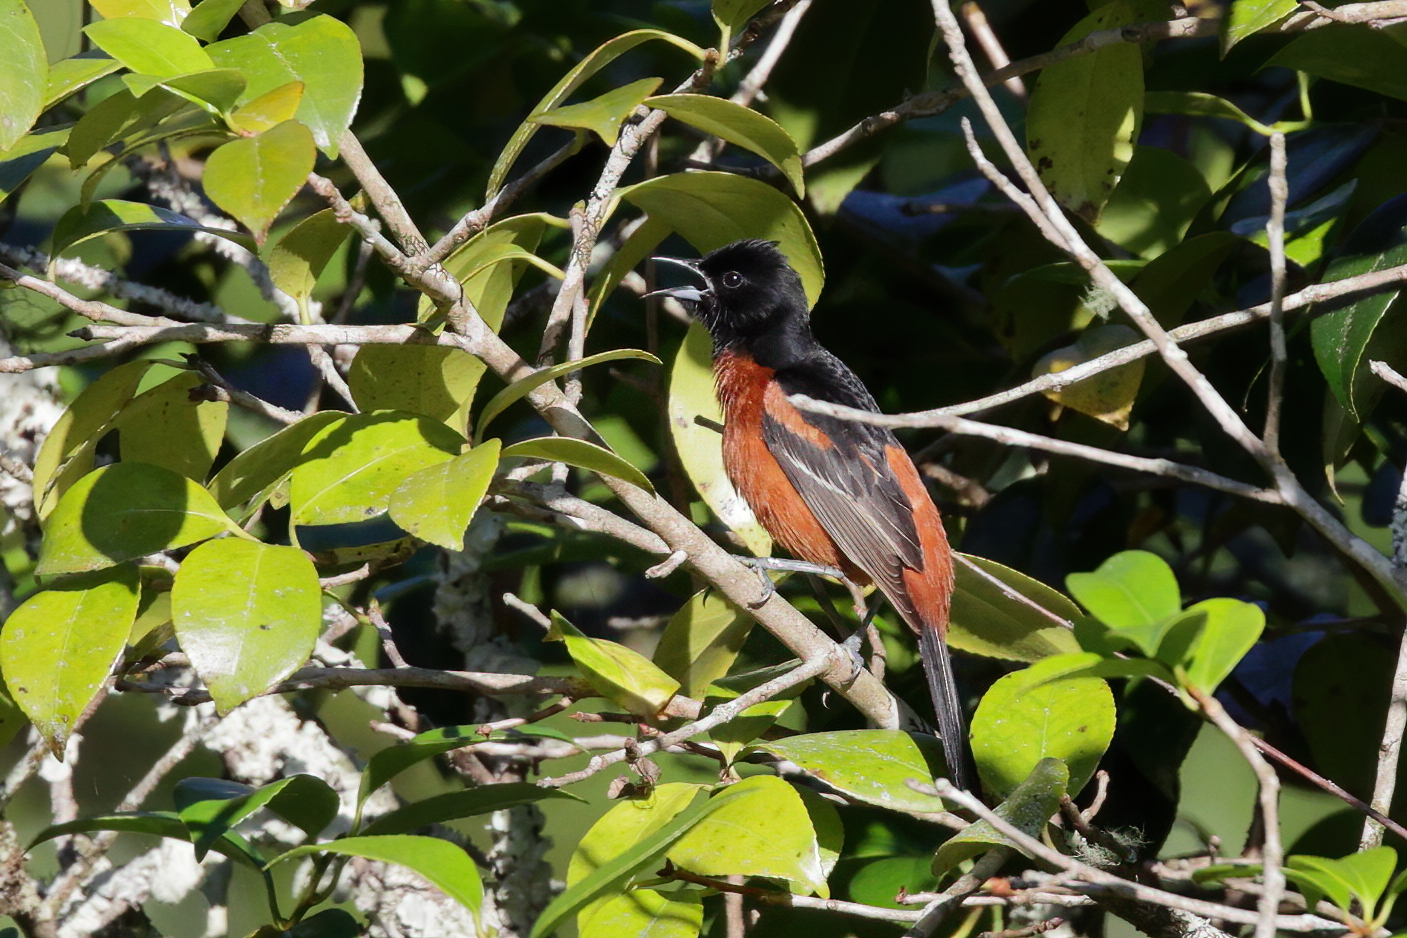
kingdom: Animalia
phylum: Chordata
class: Aves
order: Passeriformes
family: Icteridae
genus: Icterus
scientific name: Icterus spurius
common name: Orchard oriole
